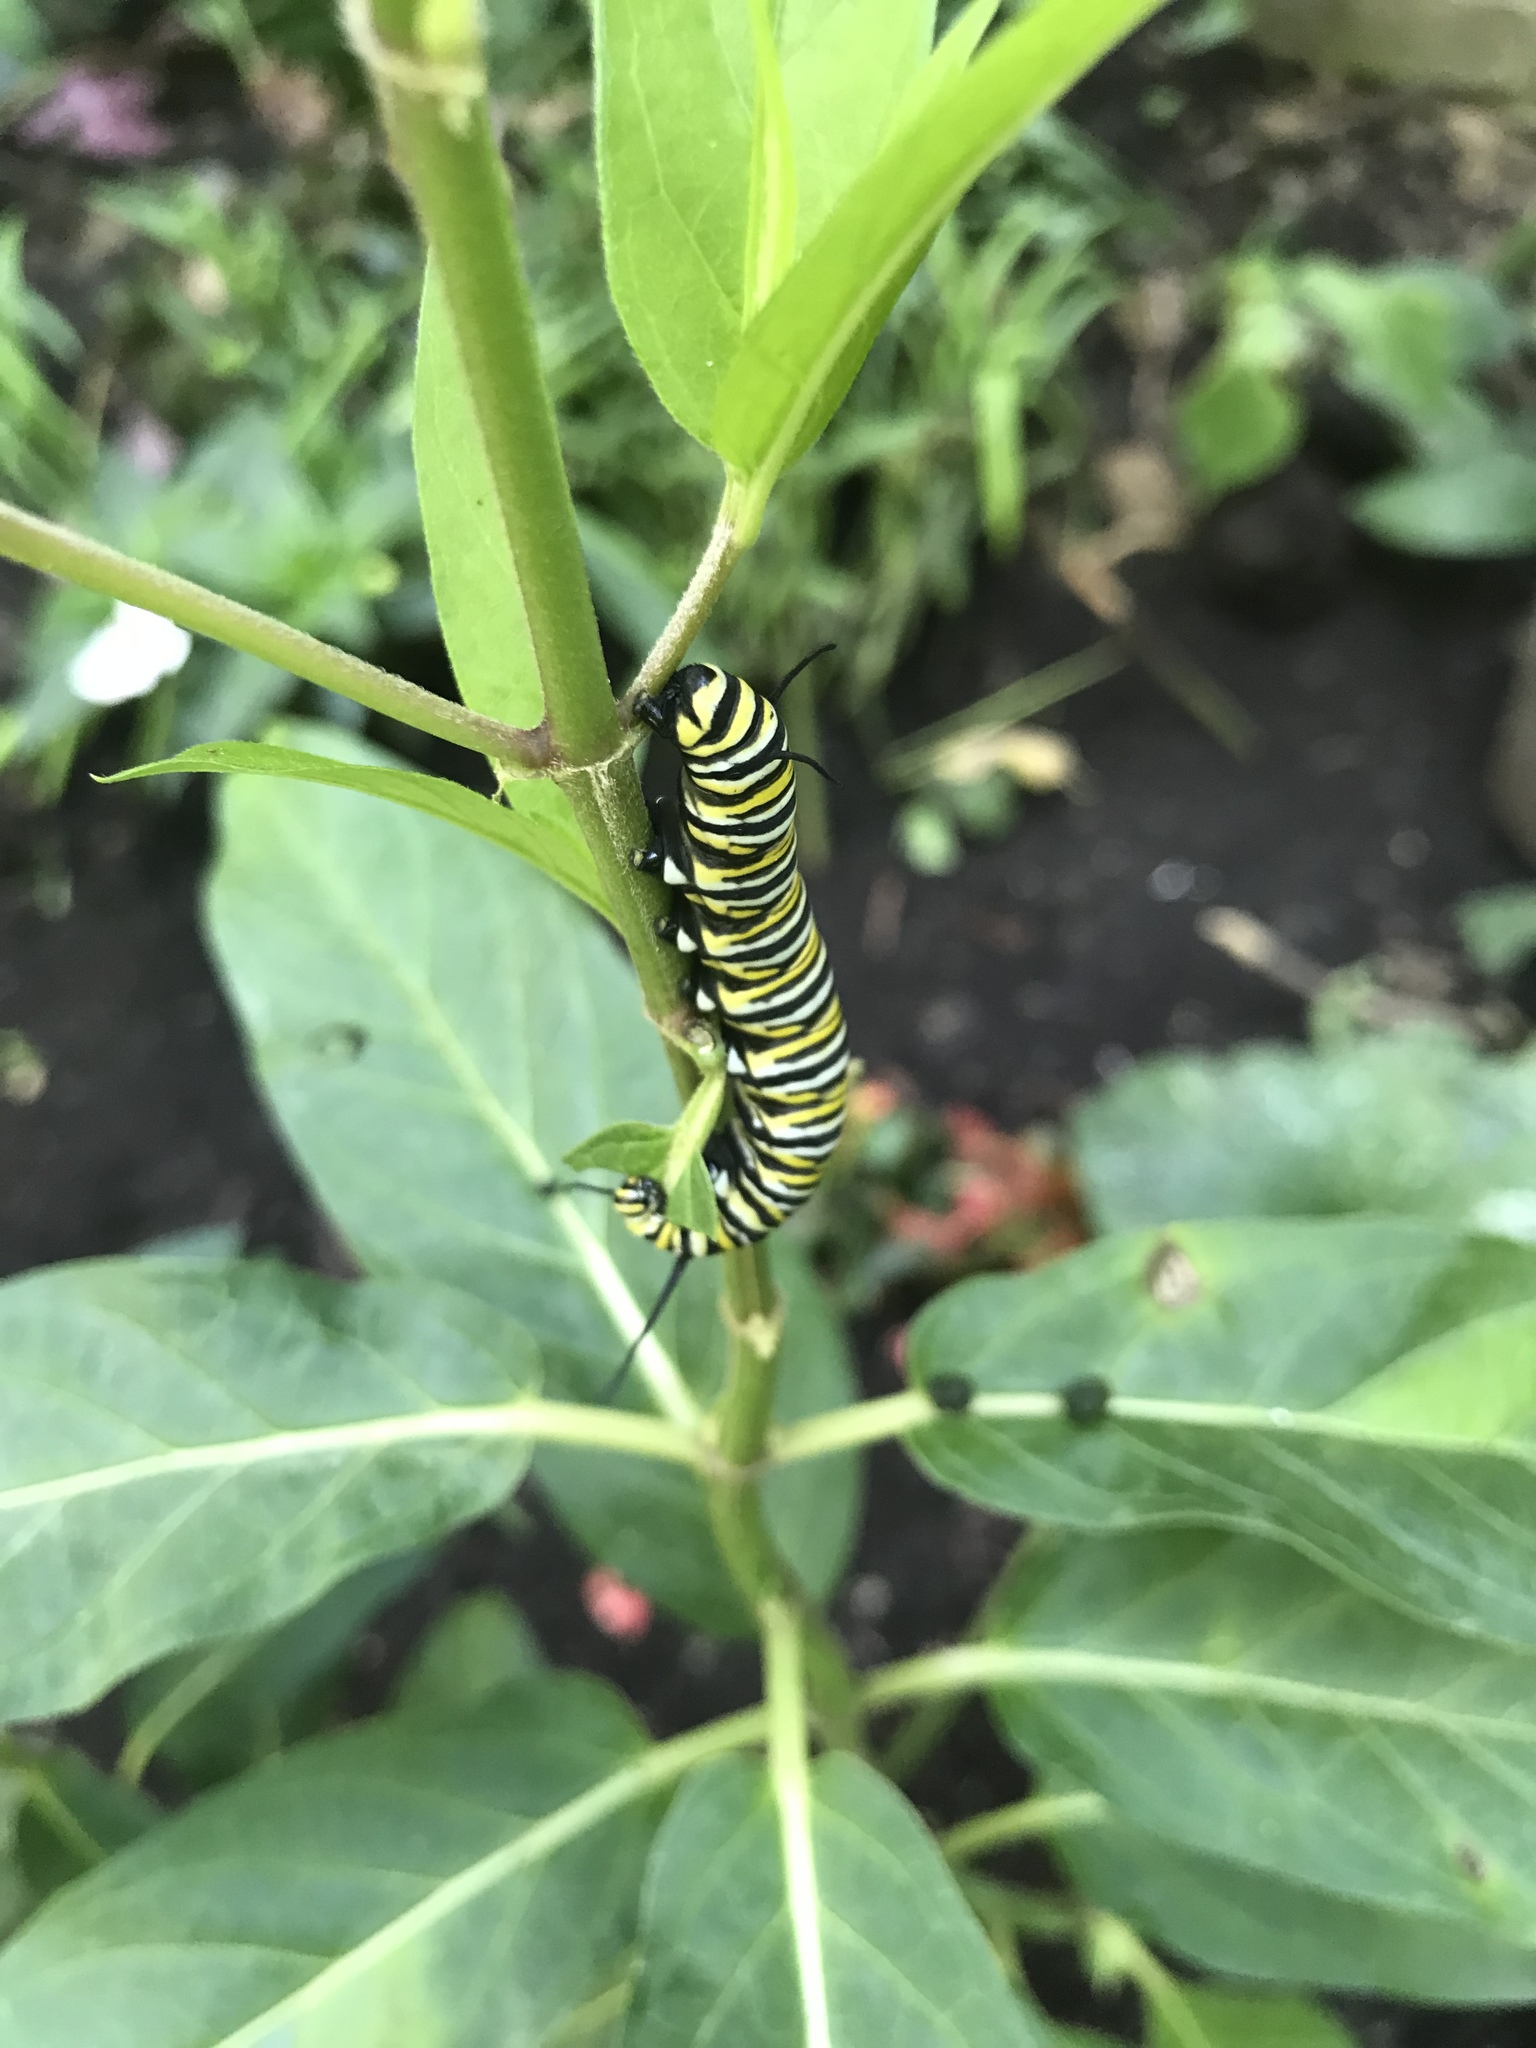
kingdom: Animalia
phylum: Arthropoda
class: Insecta
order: Lepidoptera
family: Nymphalidae
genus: Danaus
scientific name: Danaus plexippus
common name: Monarch
